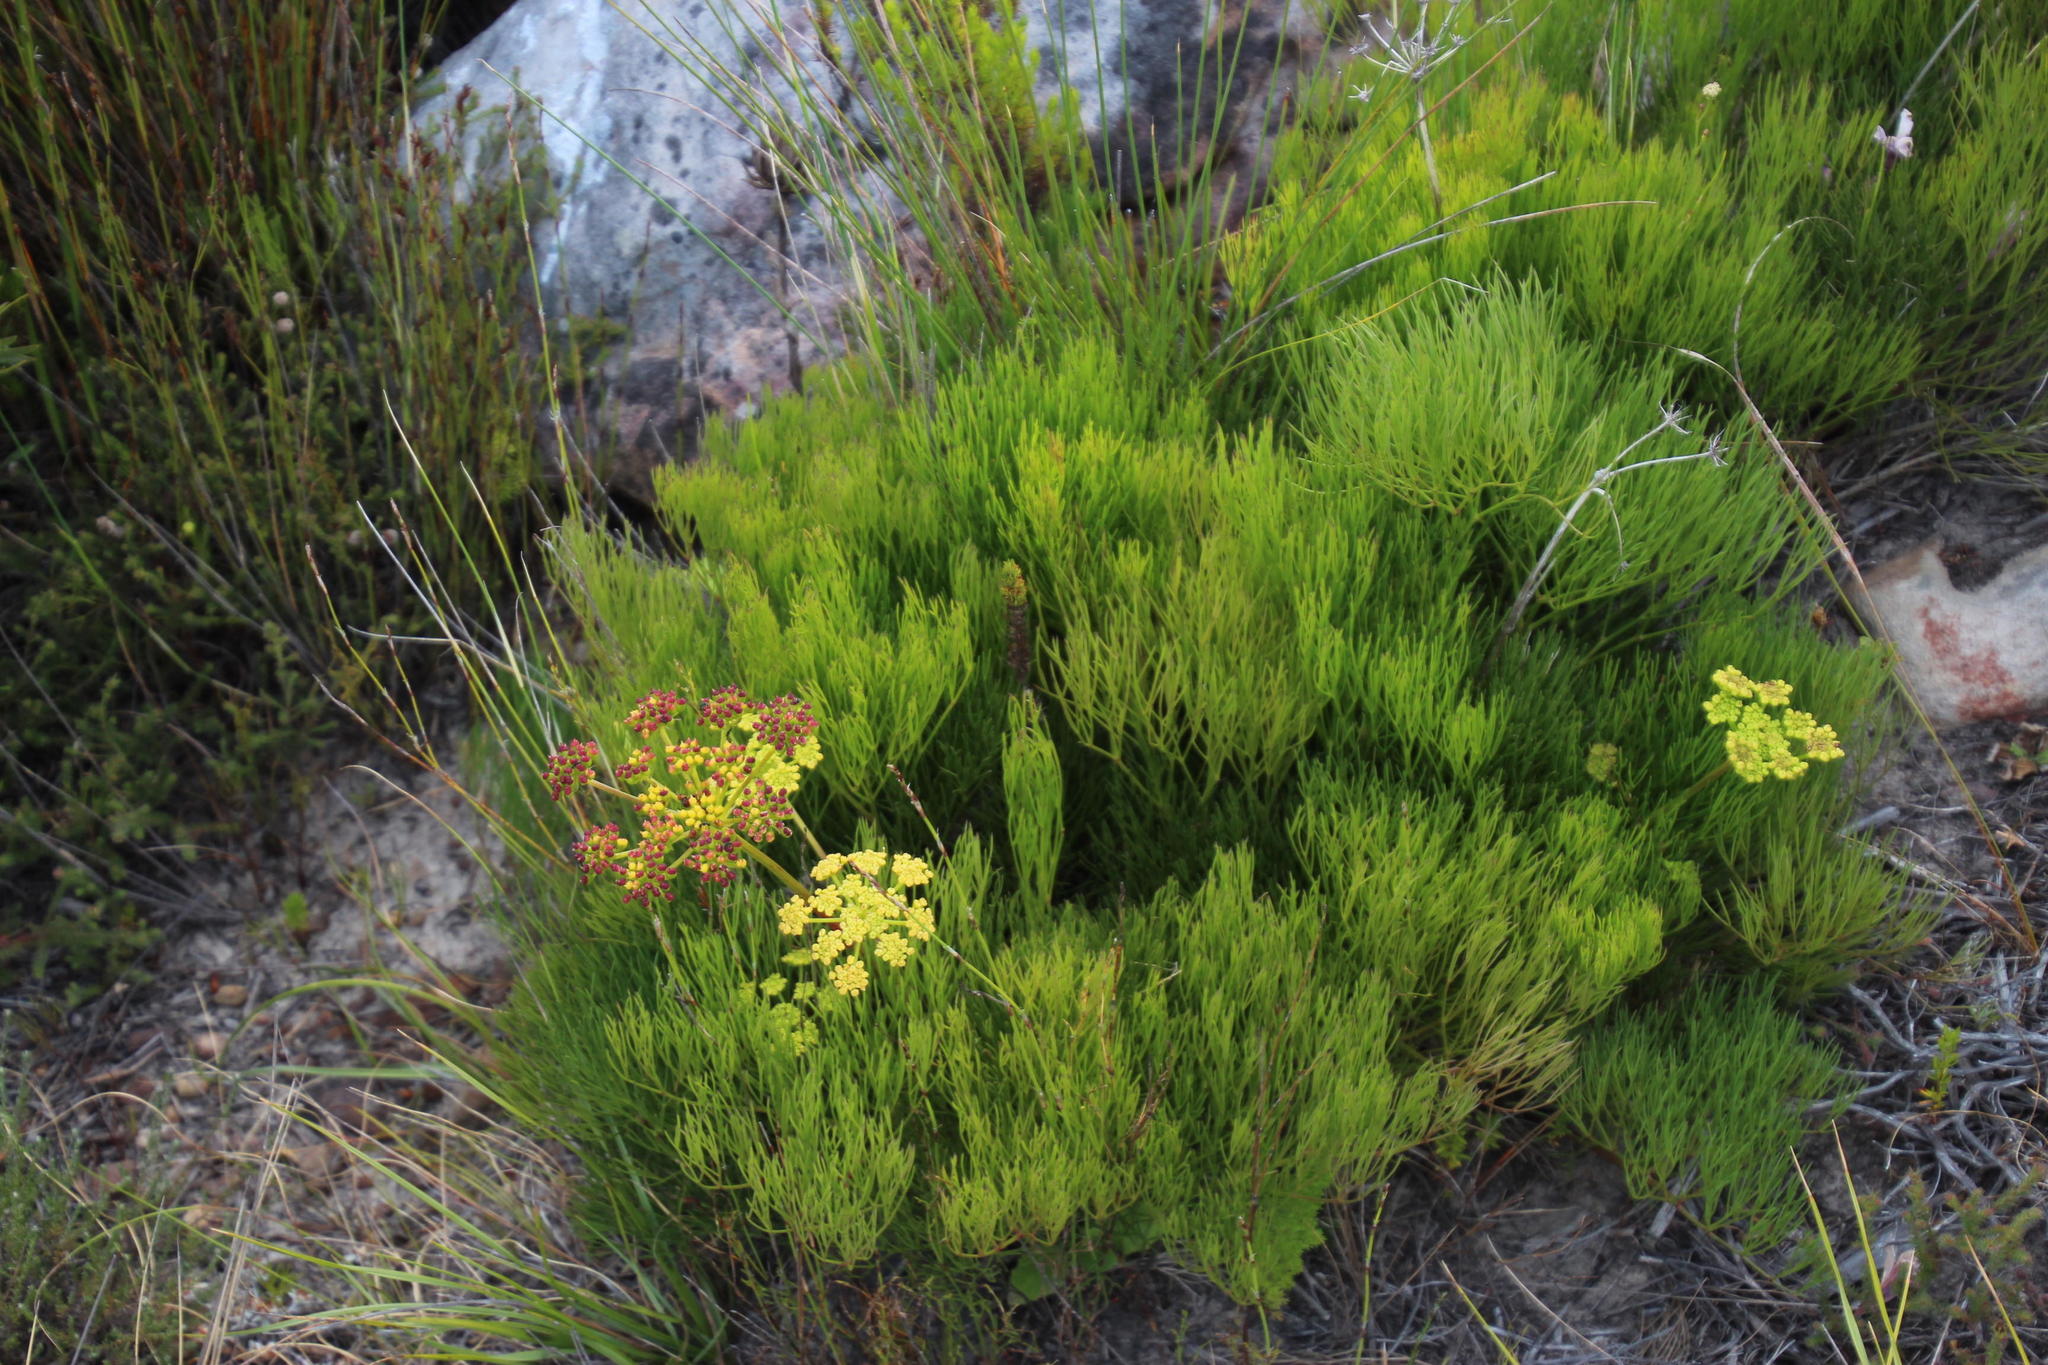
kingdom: Plantae
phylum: Tracheophyta
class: Magnoliopsida
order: Apiales
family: Apiaceae
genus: Nanobubon
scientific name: Nanobubon strictum
